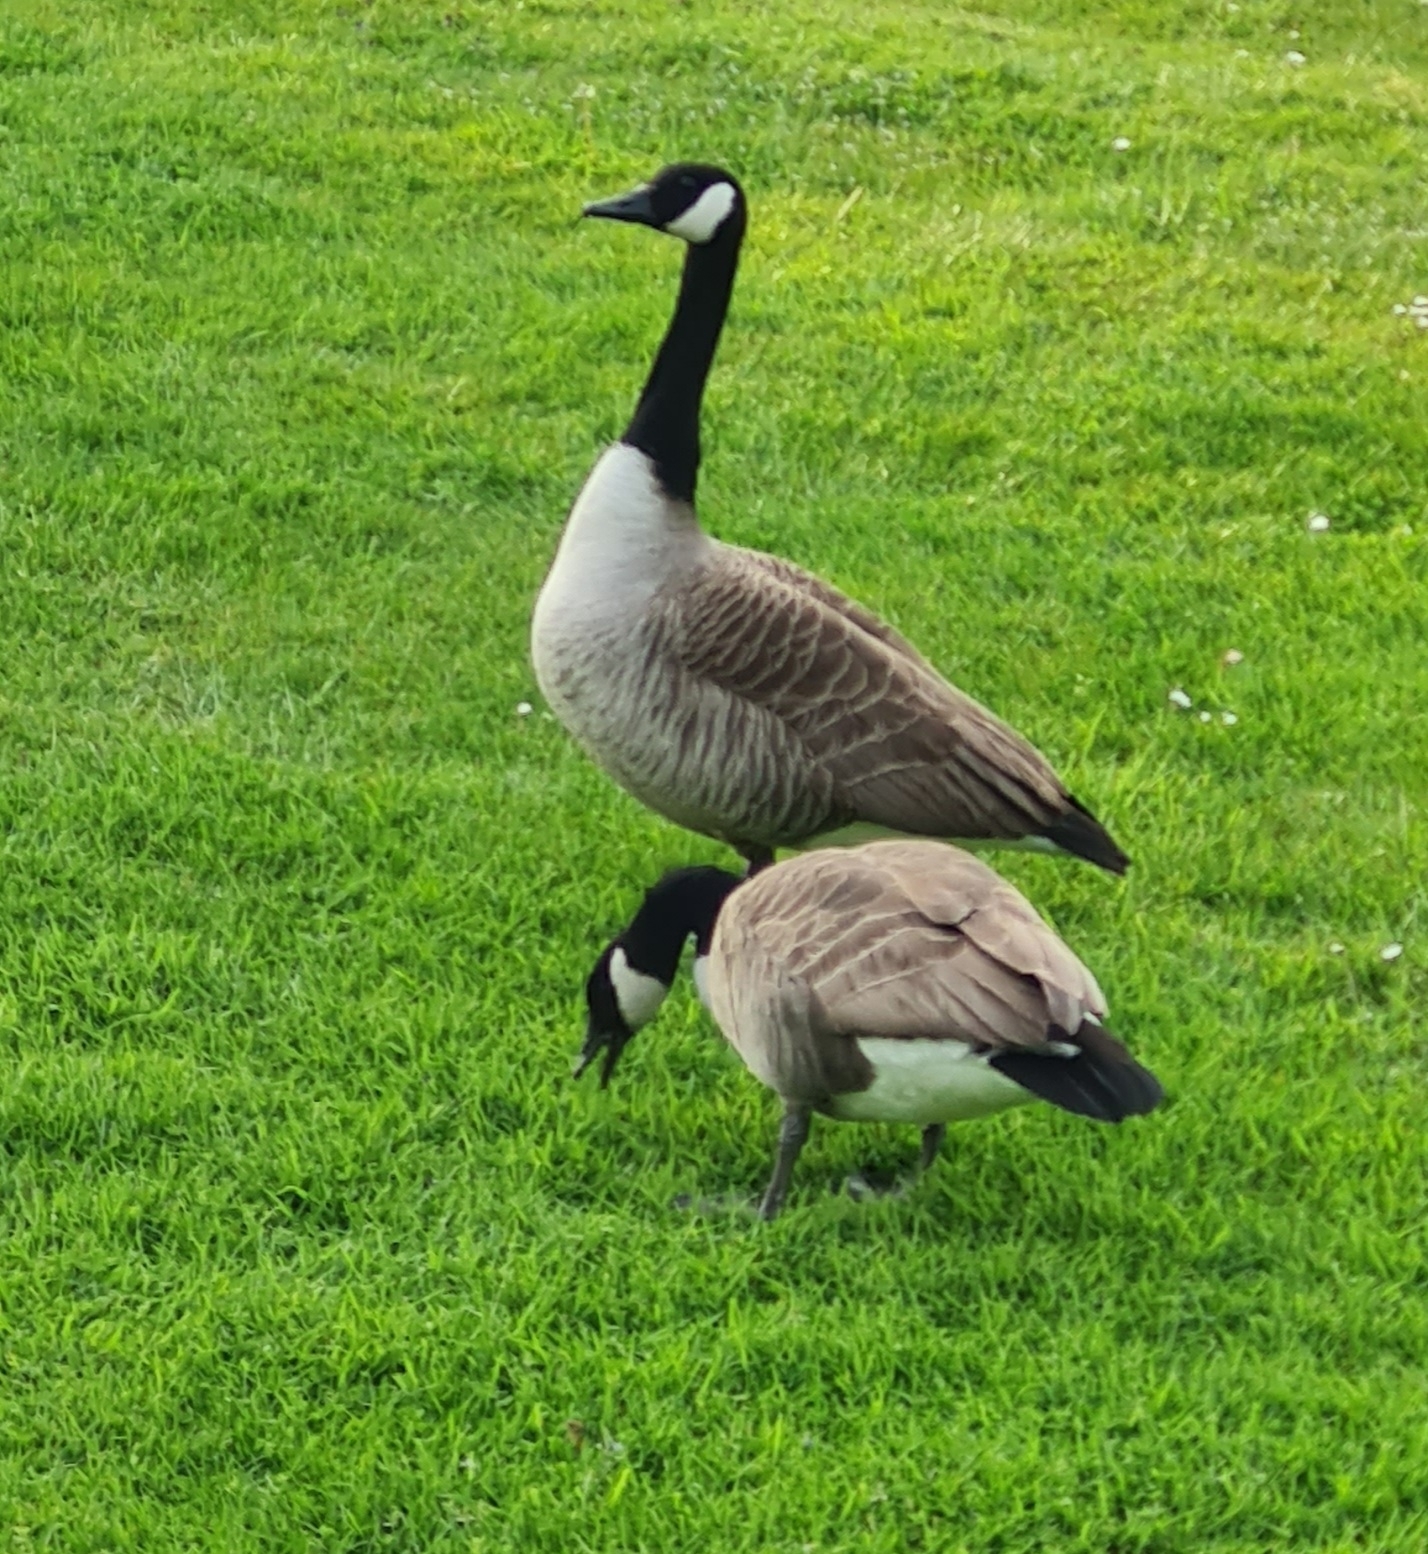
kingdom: Animalia
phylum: Chordata
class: Aves
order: Anseriformes
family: Anatidae
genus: Branta
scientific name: Branta canadensis
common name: Canada goose
